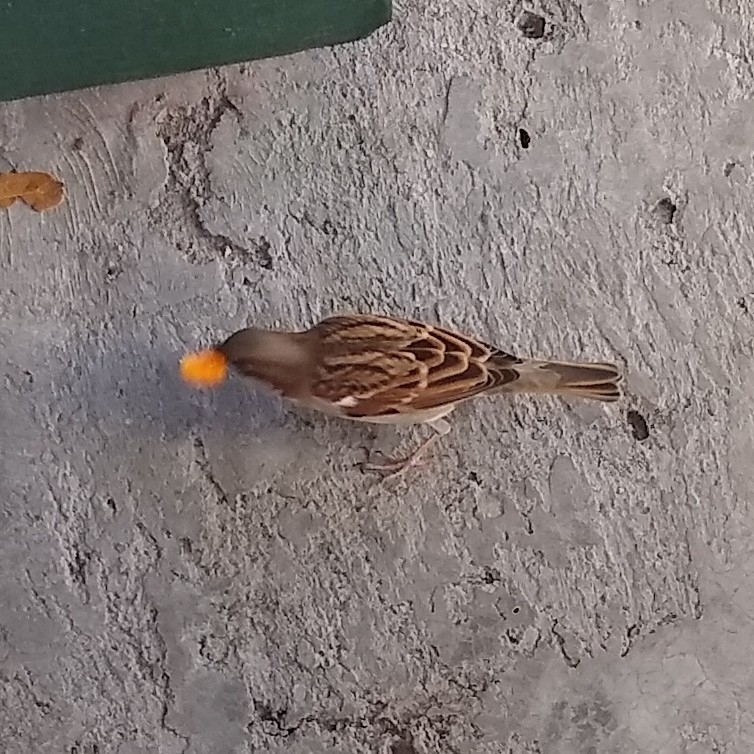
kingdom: Animalia
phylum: Chordata
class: Aves
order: Passeriformes
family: Passeridae
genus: Passer
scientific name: Passer domesticus
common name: House sparrow
